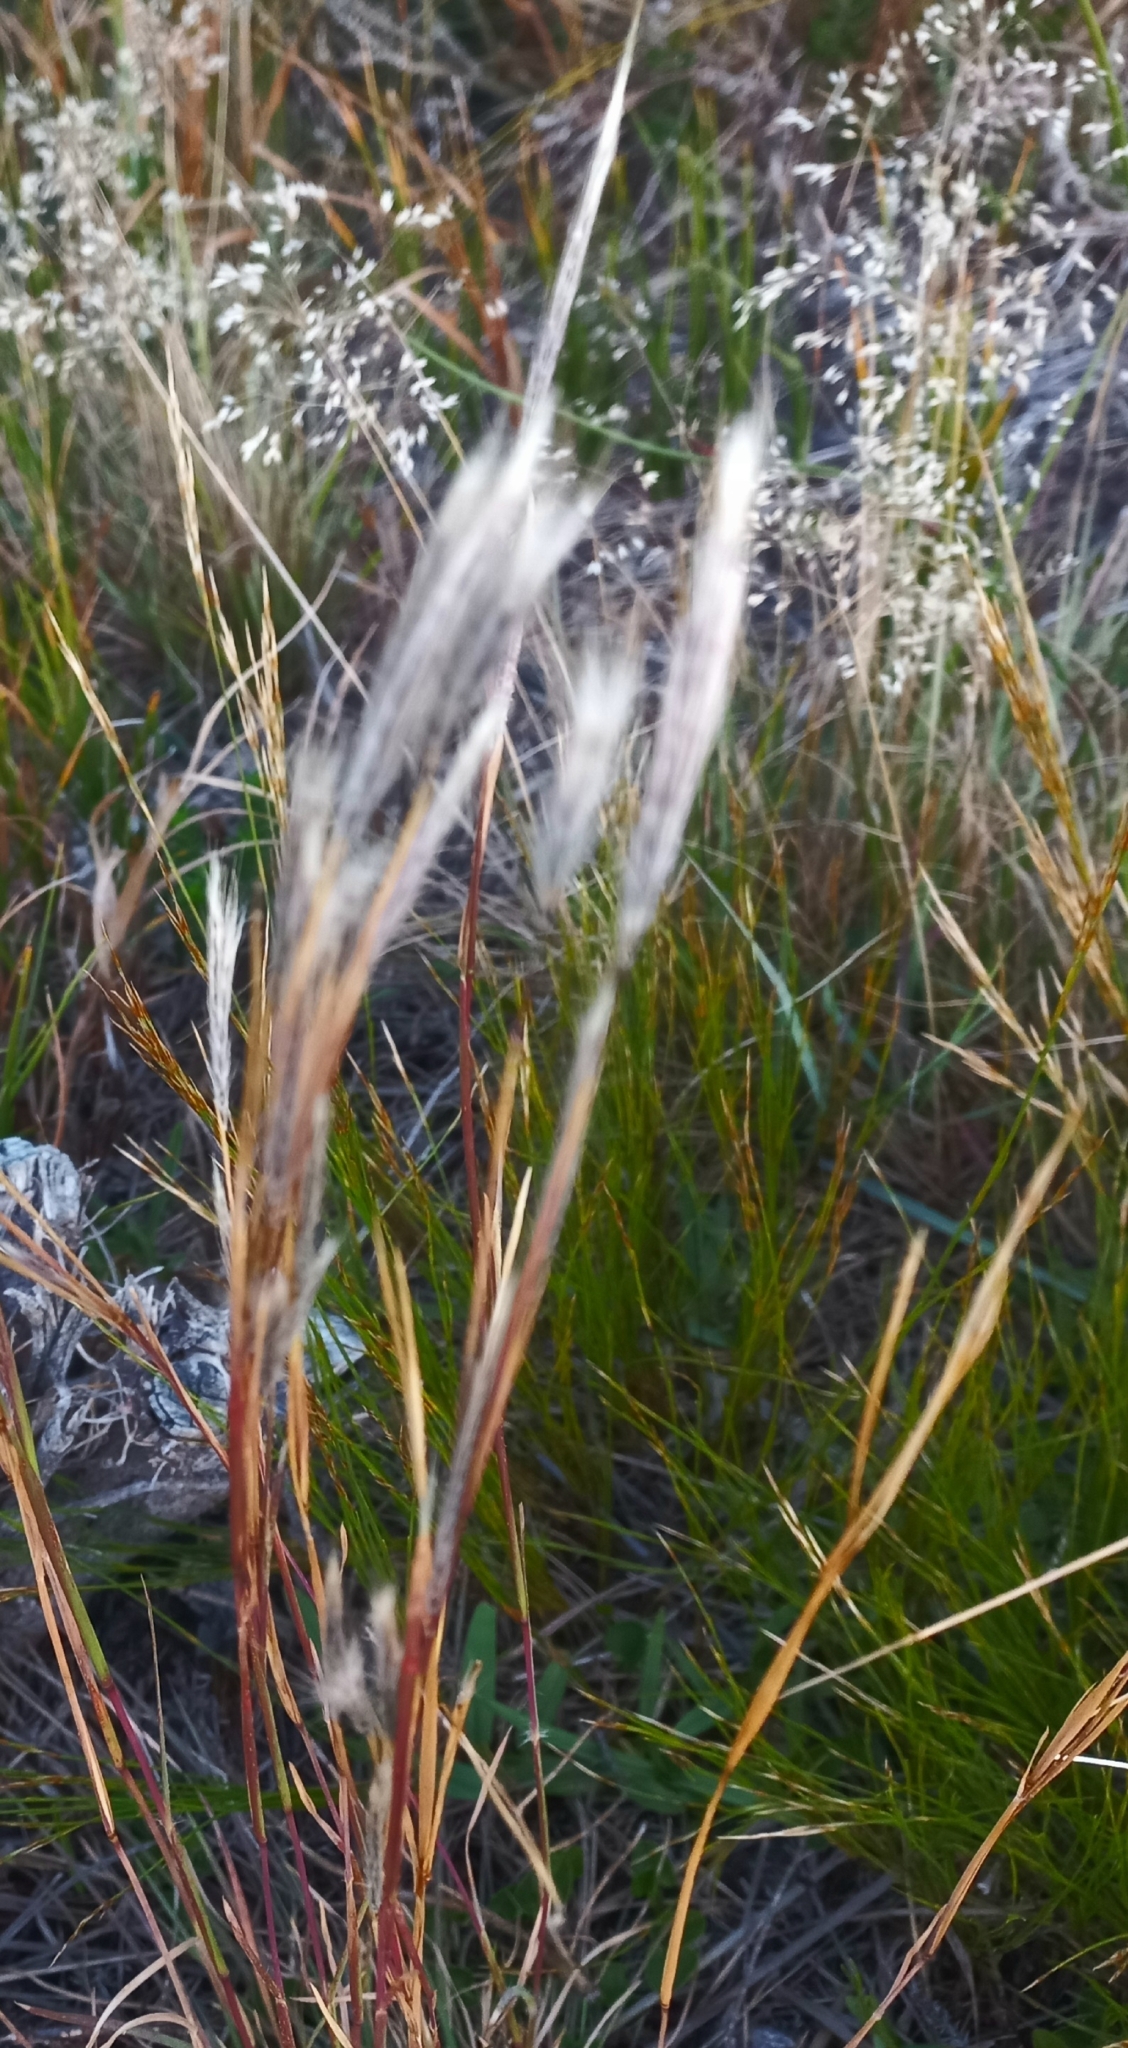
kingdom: Plantae
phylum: Tracheophyta
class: Liliopsida
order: Poales
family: Poaceae
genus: Andropogon
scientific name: Andropogon eucomus
